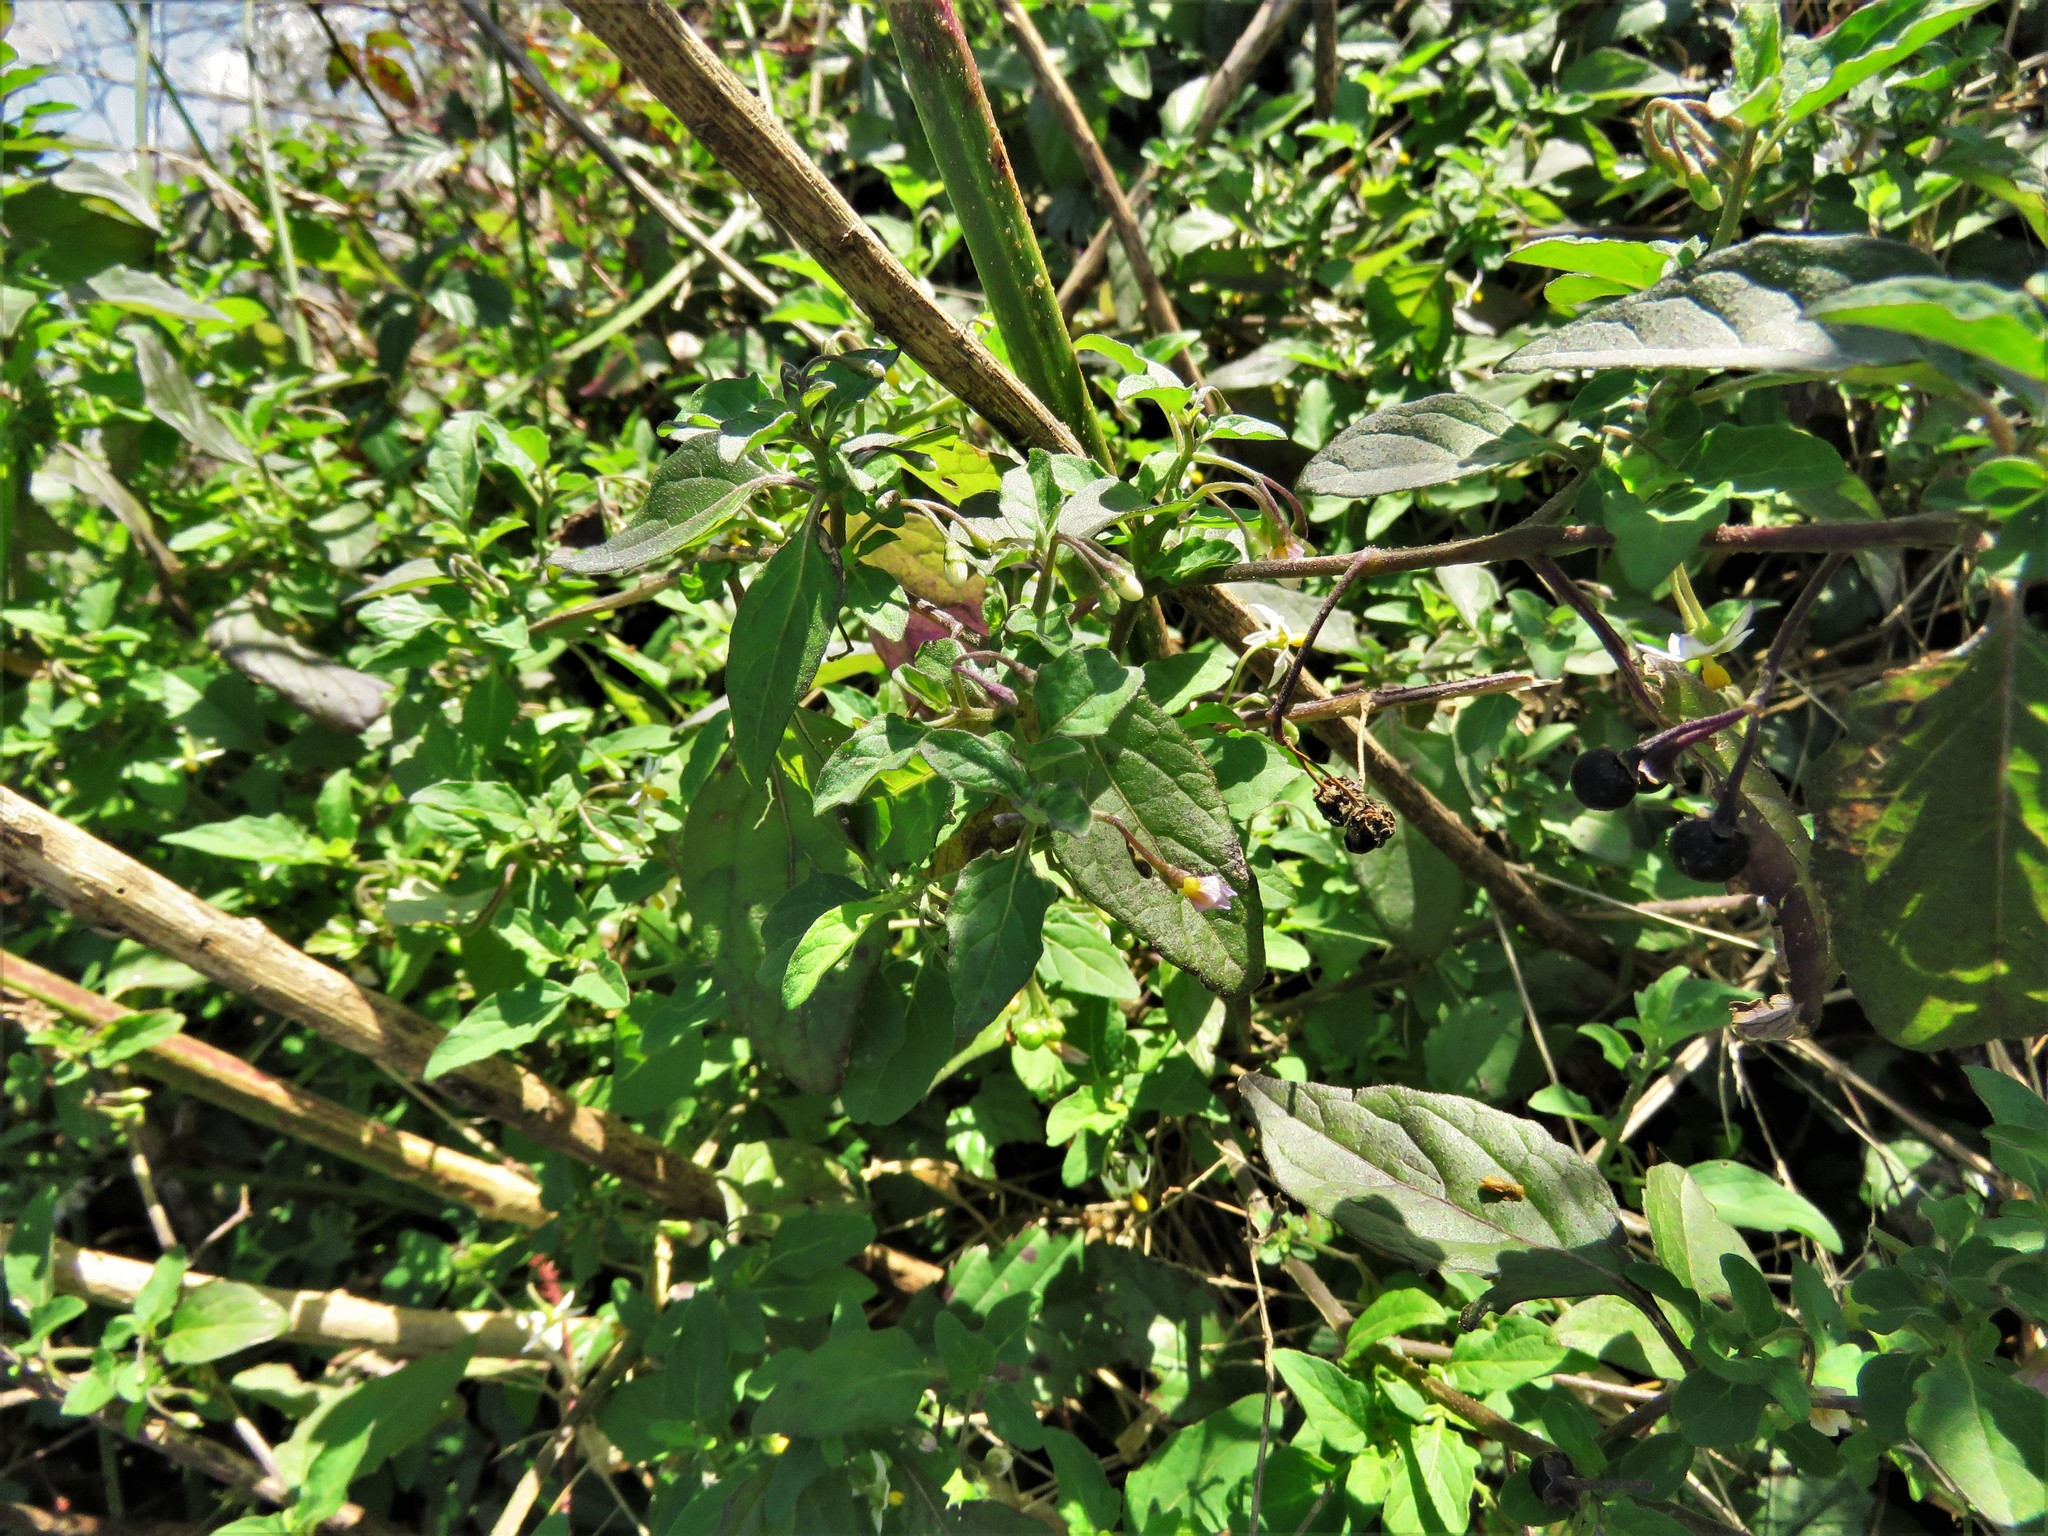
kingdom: Plantae
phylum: Tracheophyta
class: Magnoliopsida
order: Solanales
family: Solanaceae
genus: Solanum
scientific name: Solanum emulans
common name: Eastern black nightshade
